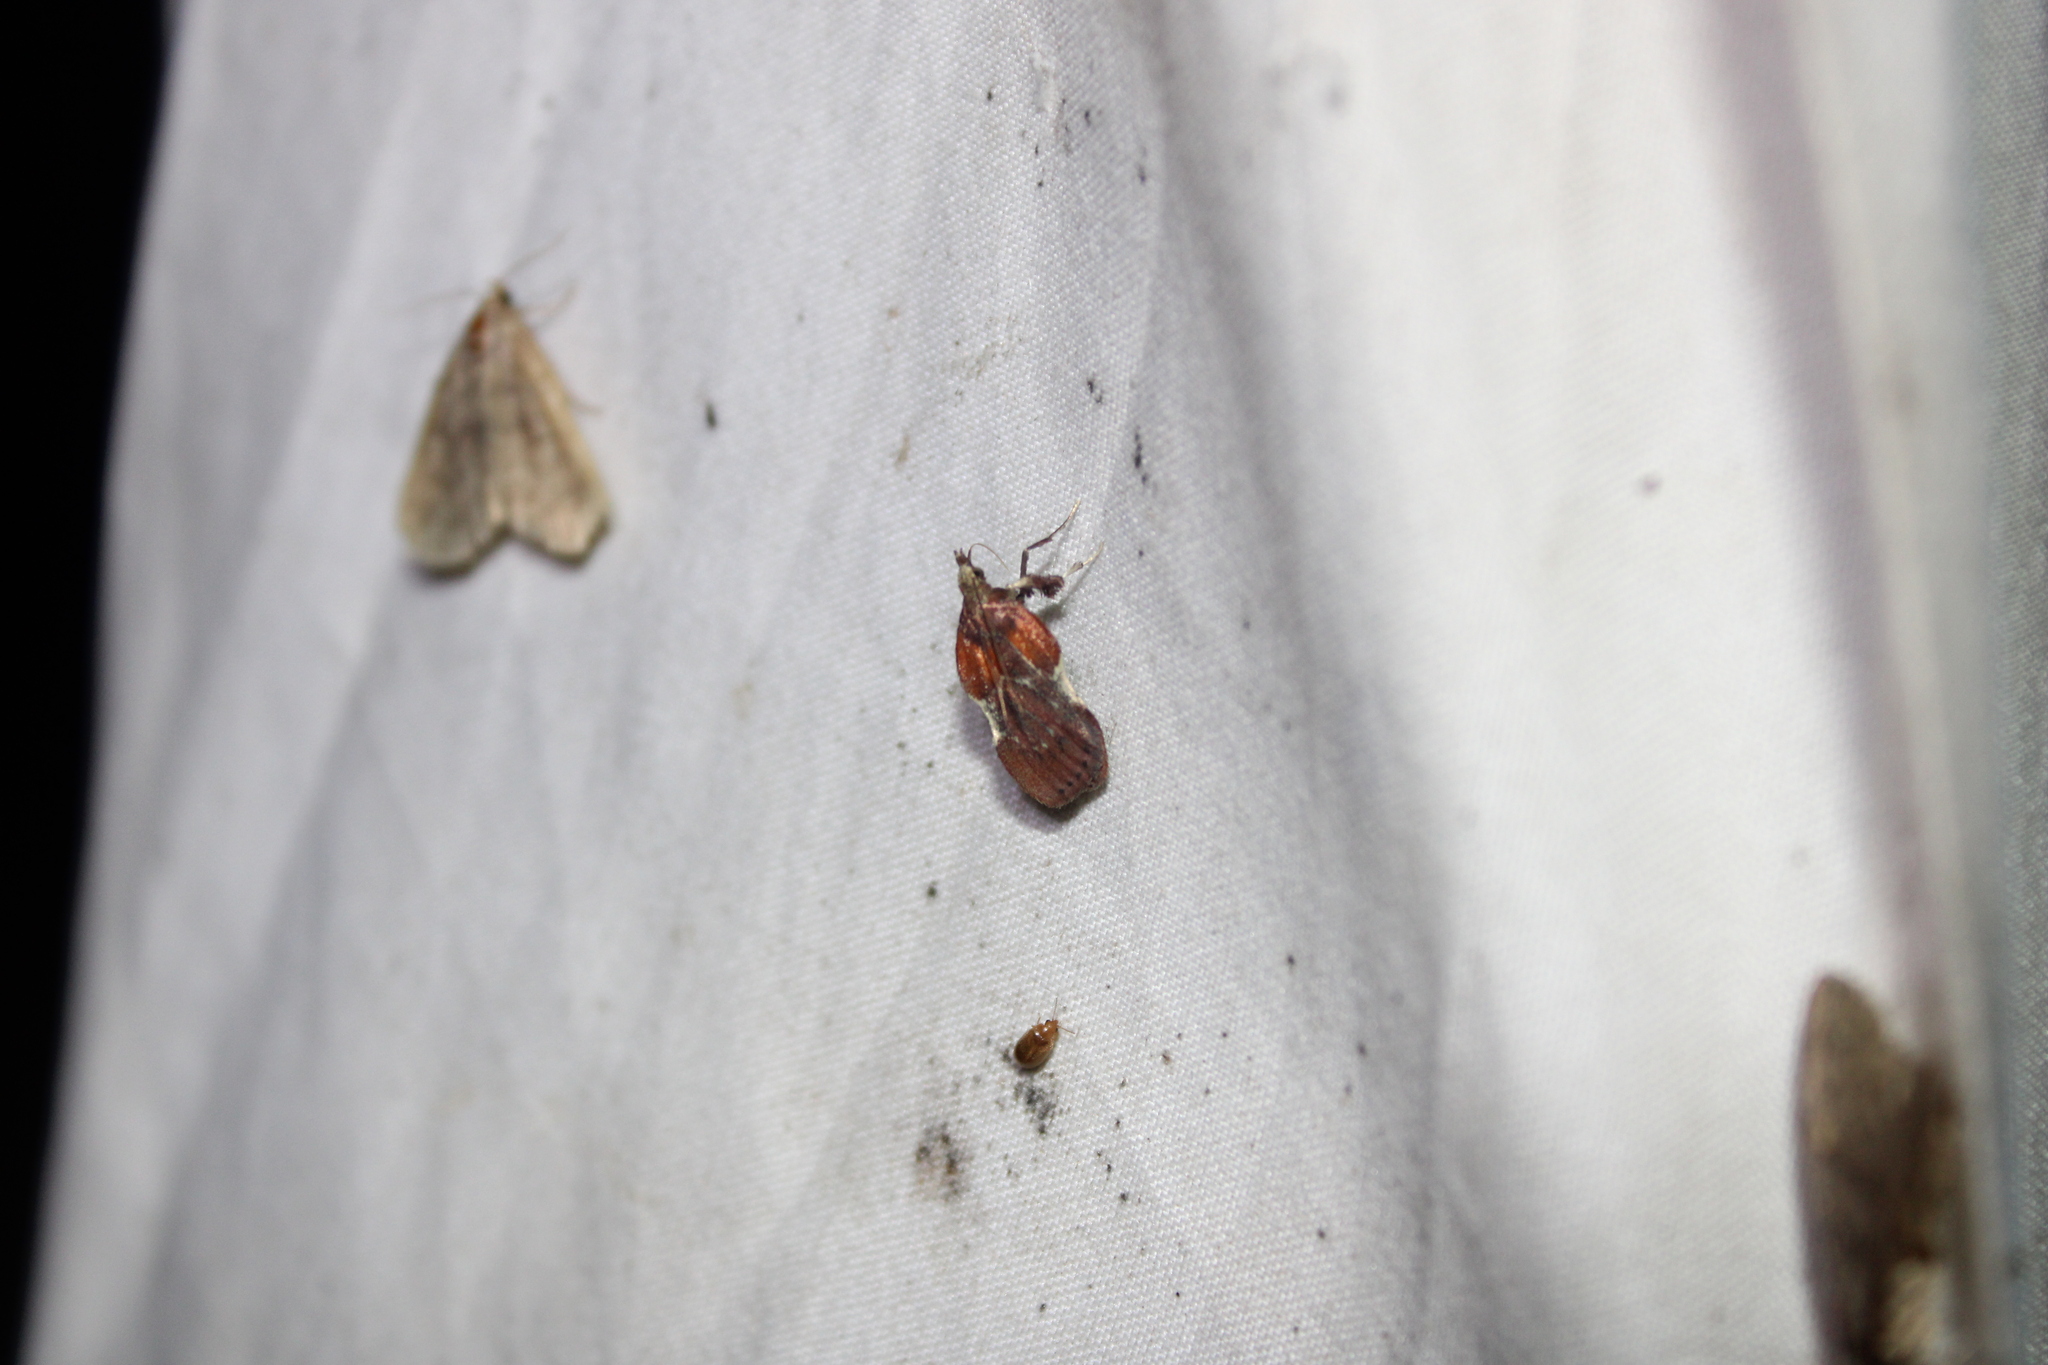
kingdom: Animalia
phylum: Arthropoda
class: Insecta
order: Lepidoptera
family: Pyralidae
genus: Galasa
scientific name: Galasa nigrinodis
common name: Boxwood leaftier moth
